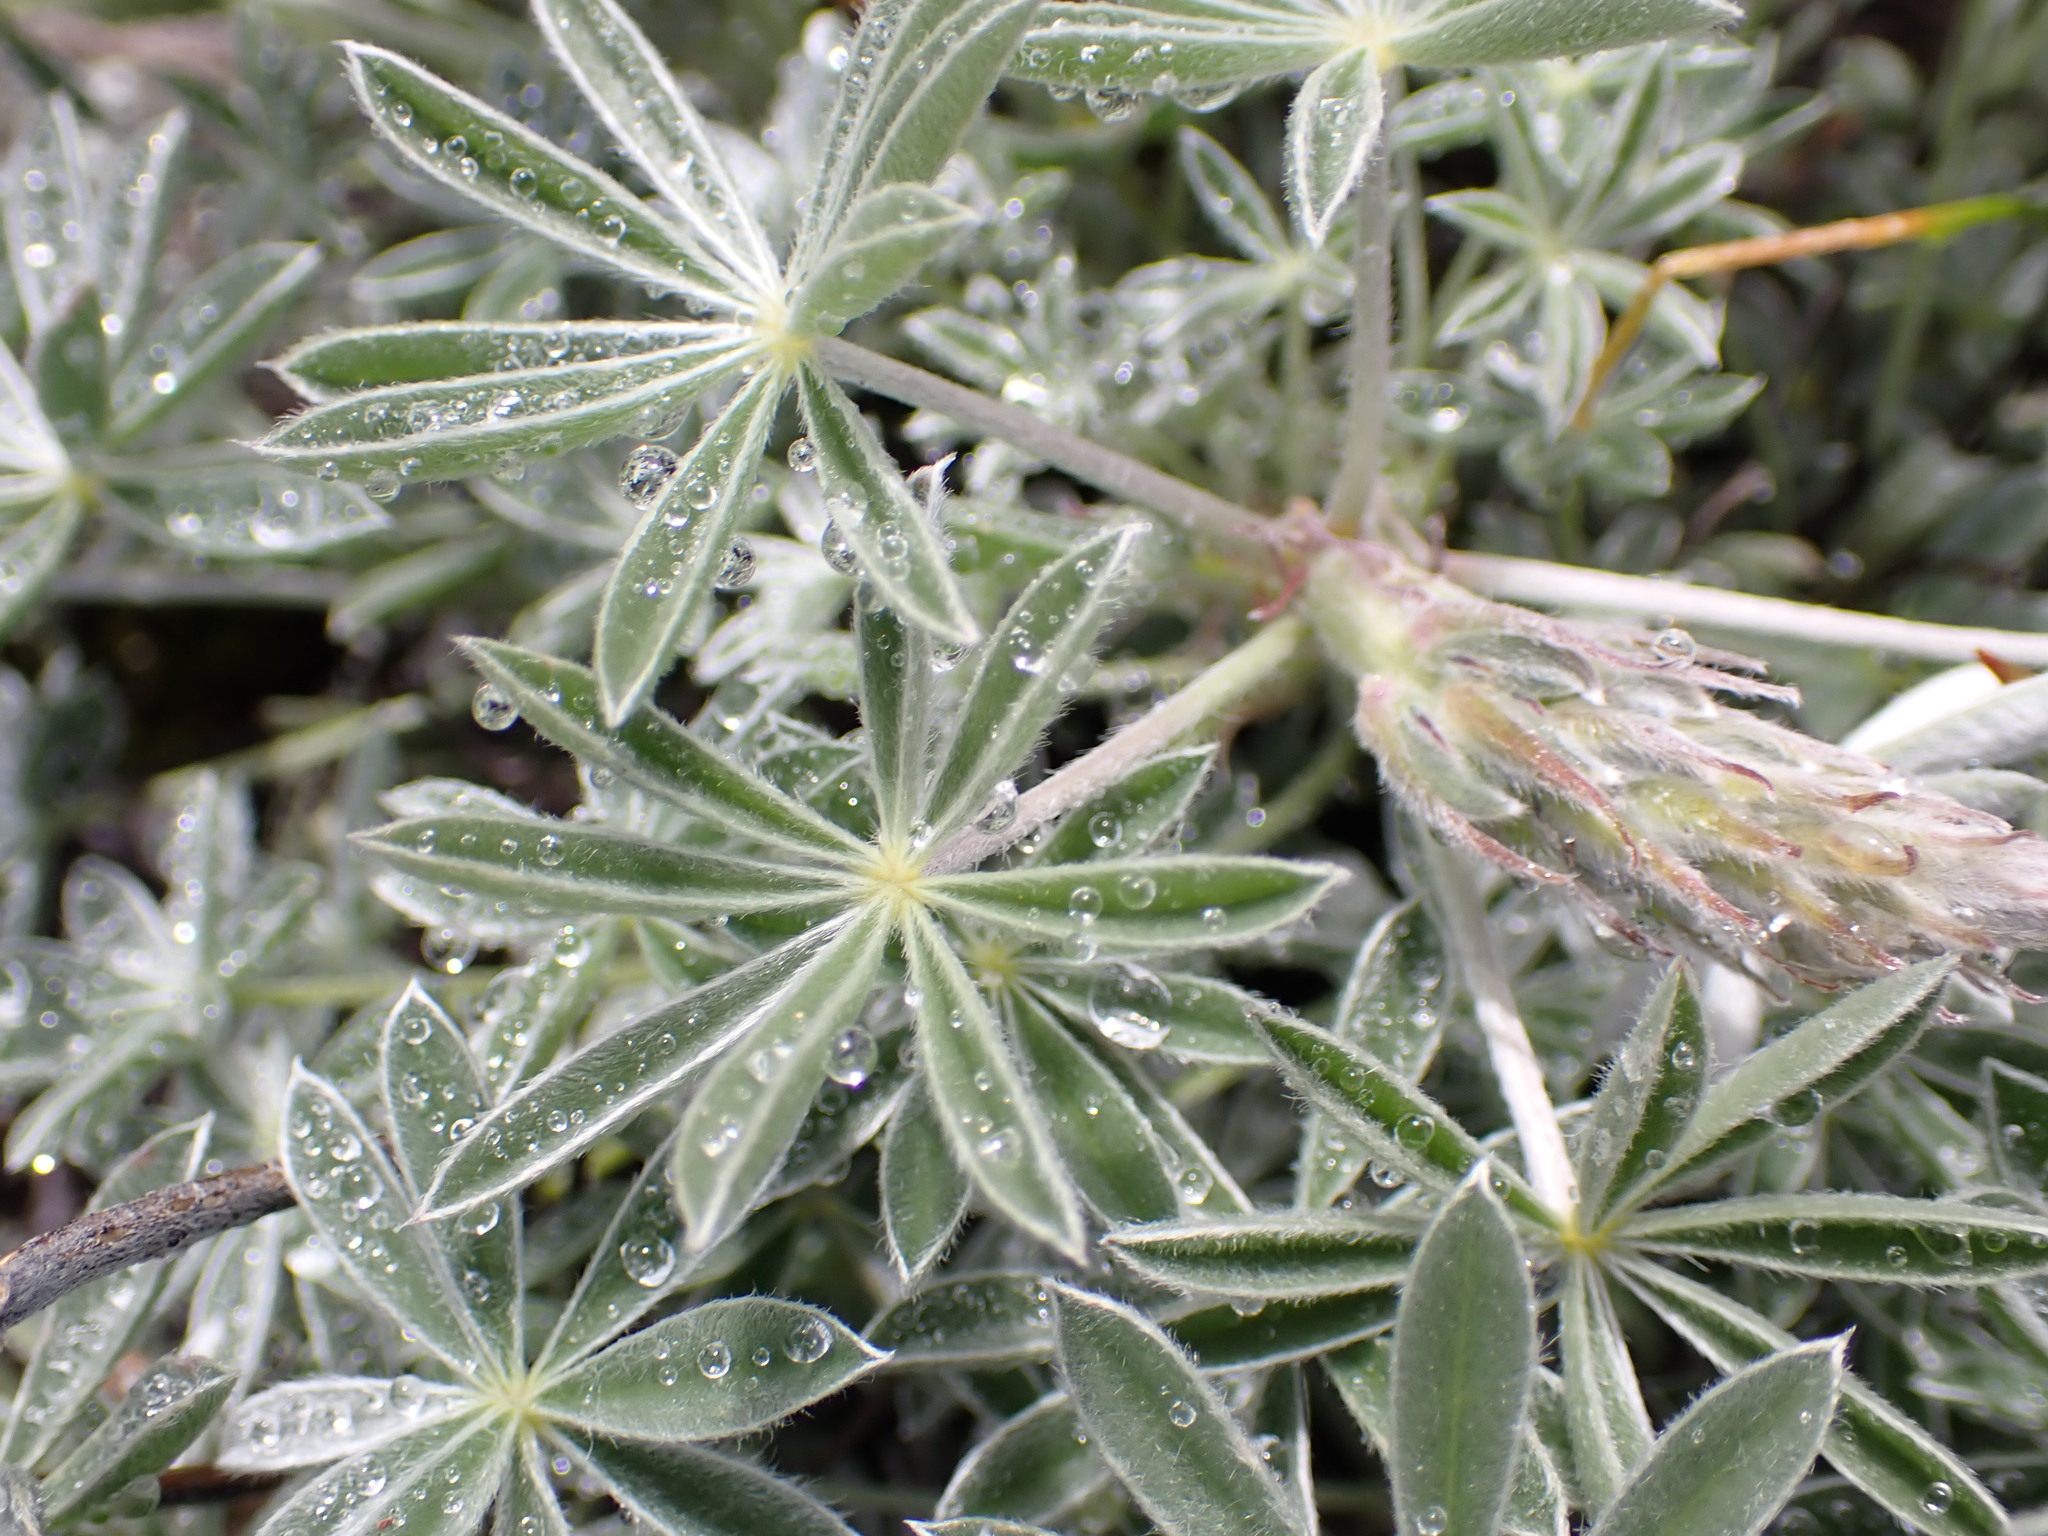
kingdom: Plantae
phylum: Tracheophyta
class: Magnoliopsida
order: Fabales
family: Fabaceae
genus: Lupinus
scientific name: Lupinus albifrons
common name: Foothill lupine
